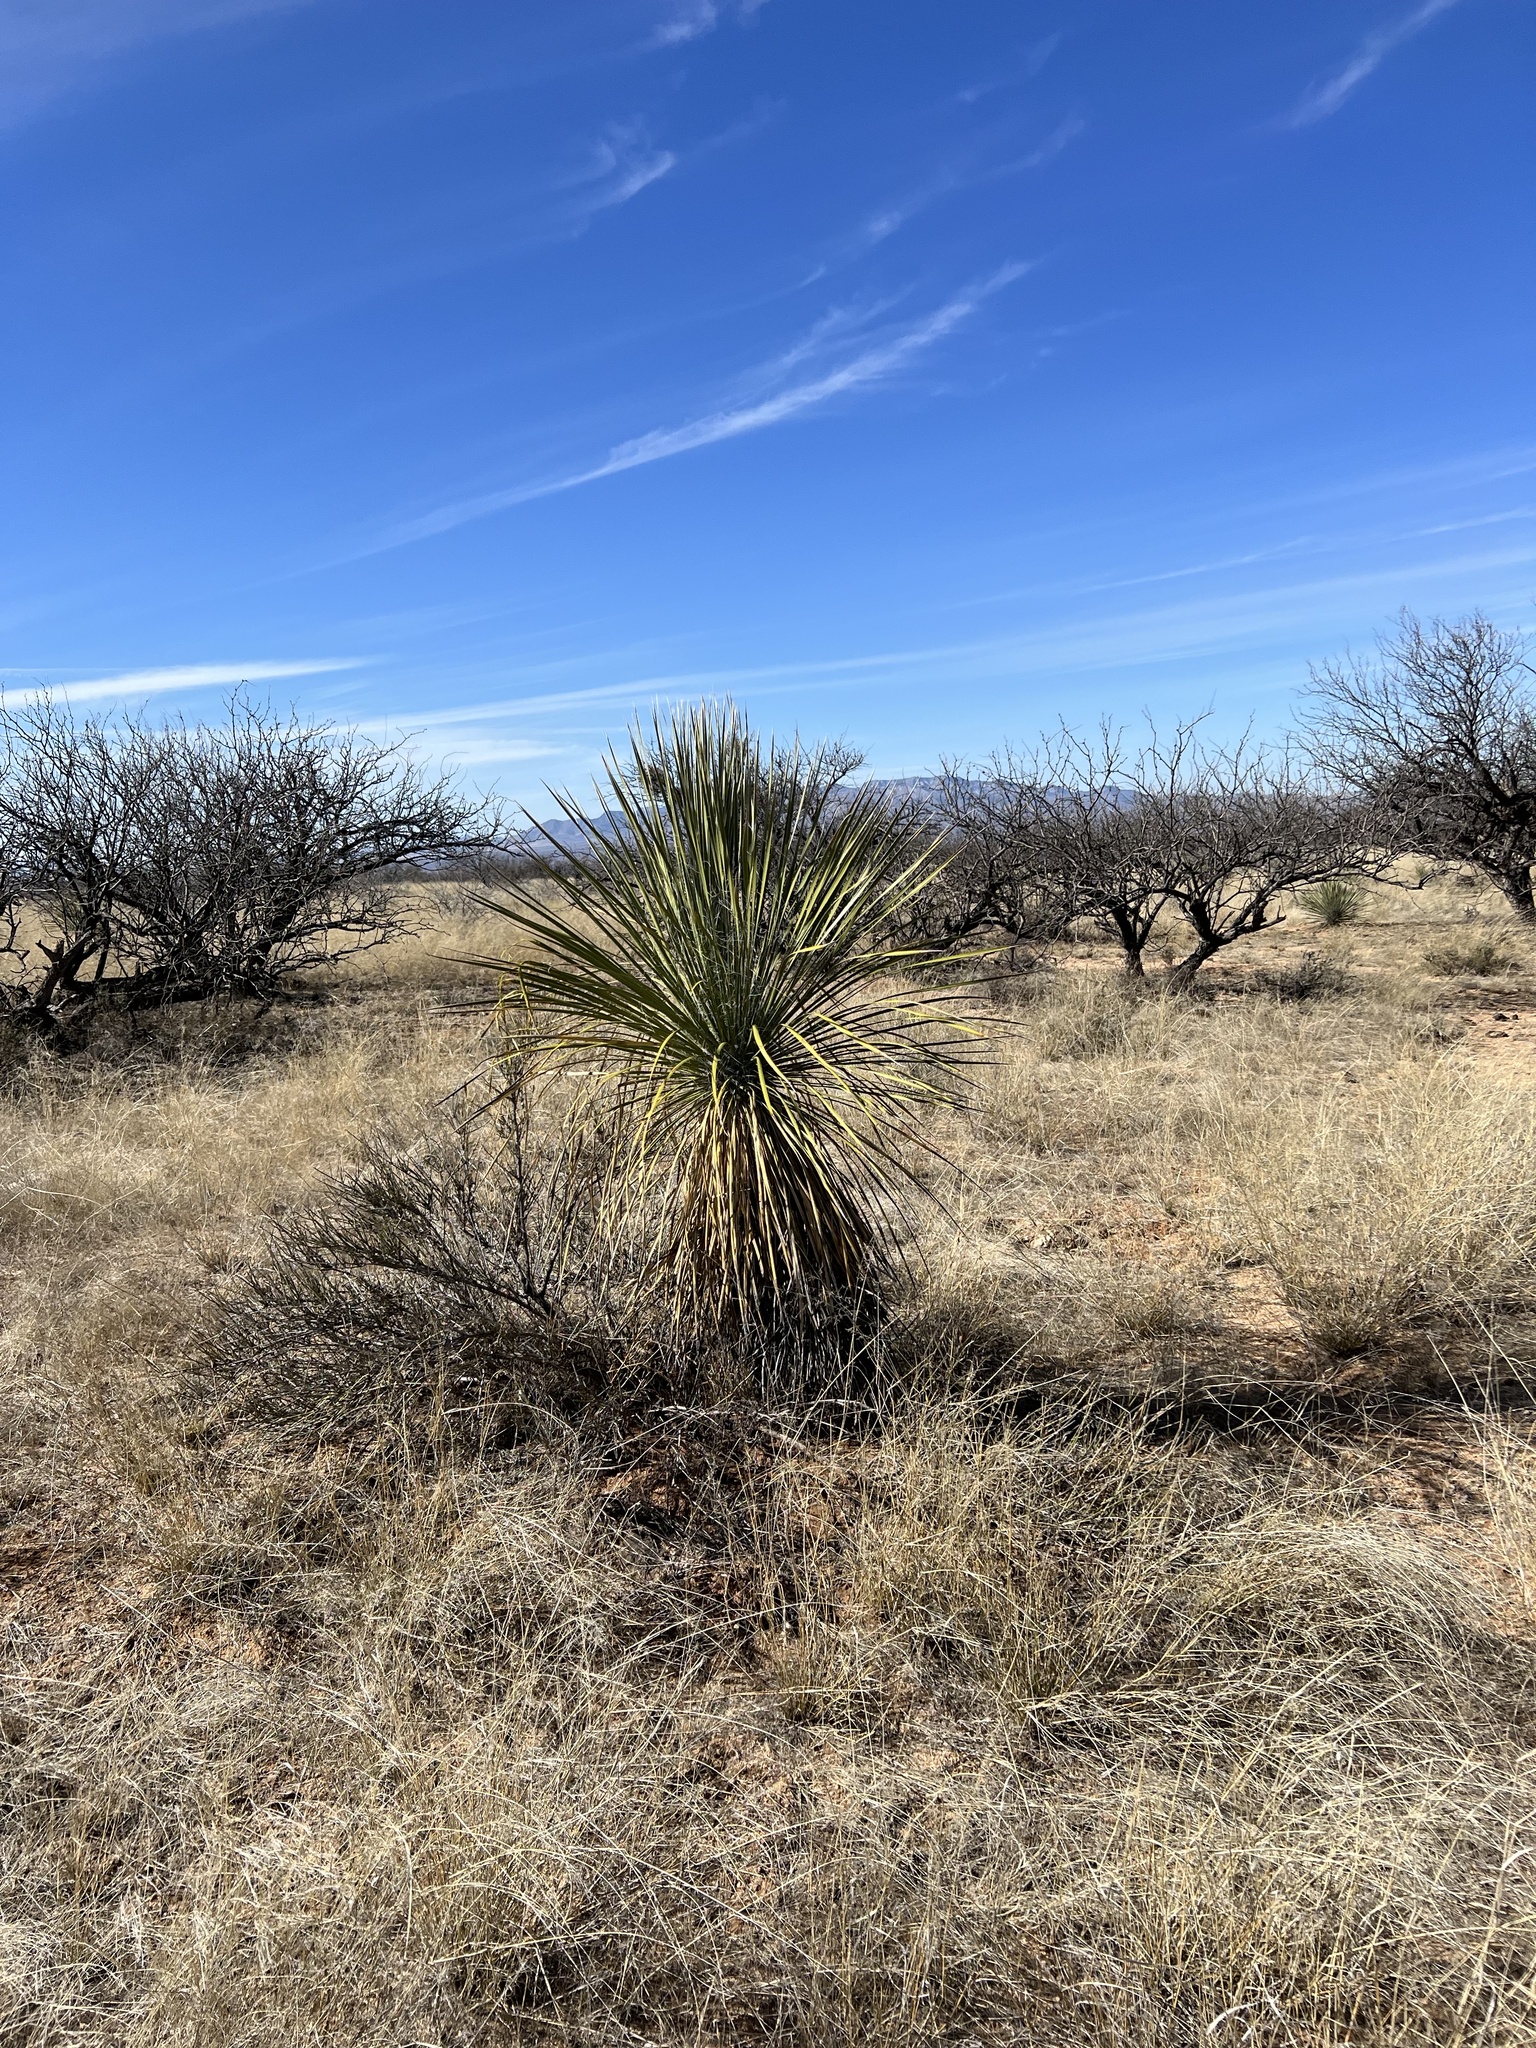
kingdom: Plantae
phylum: Tracheophyta
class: Liliopsida
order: Asparagales
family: Asparagaceae
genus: Yucca
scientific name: Yucca elata
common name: Palmella
